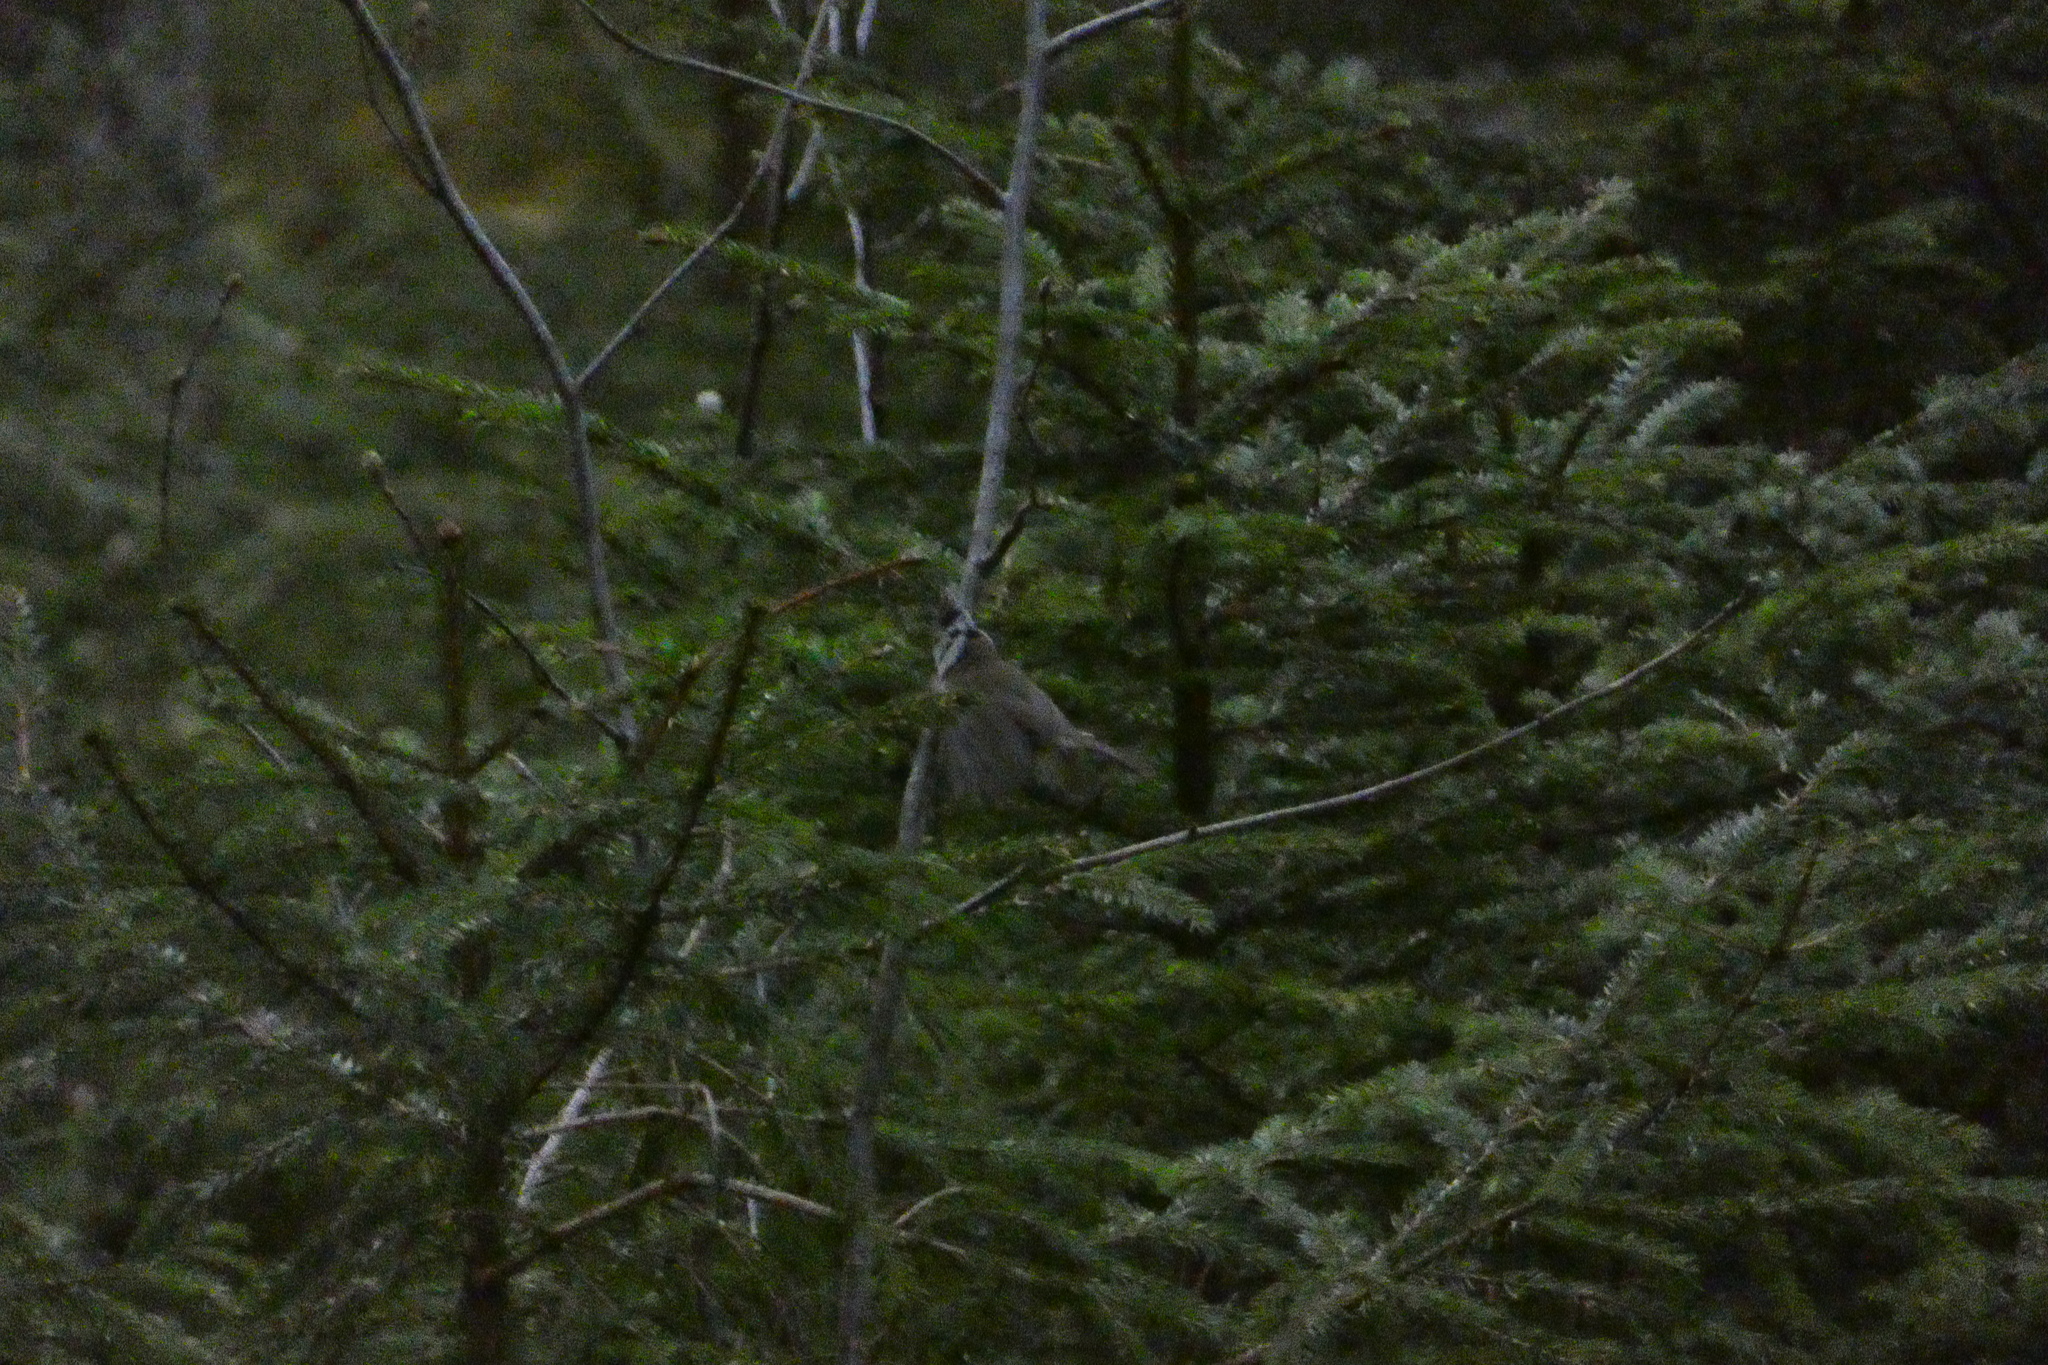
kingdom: Animalia
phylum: Chordata
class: Aves
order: Passeriformes
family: Paridae
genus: Lophophanes
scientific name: Lophophanes cristatus
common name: European crested tit
